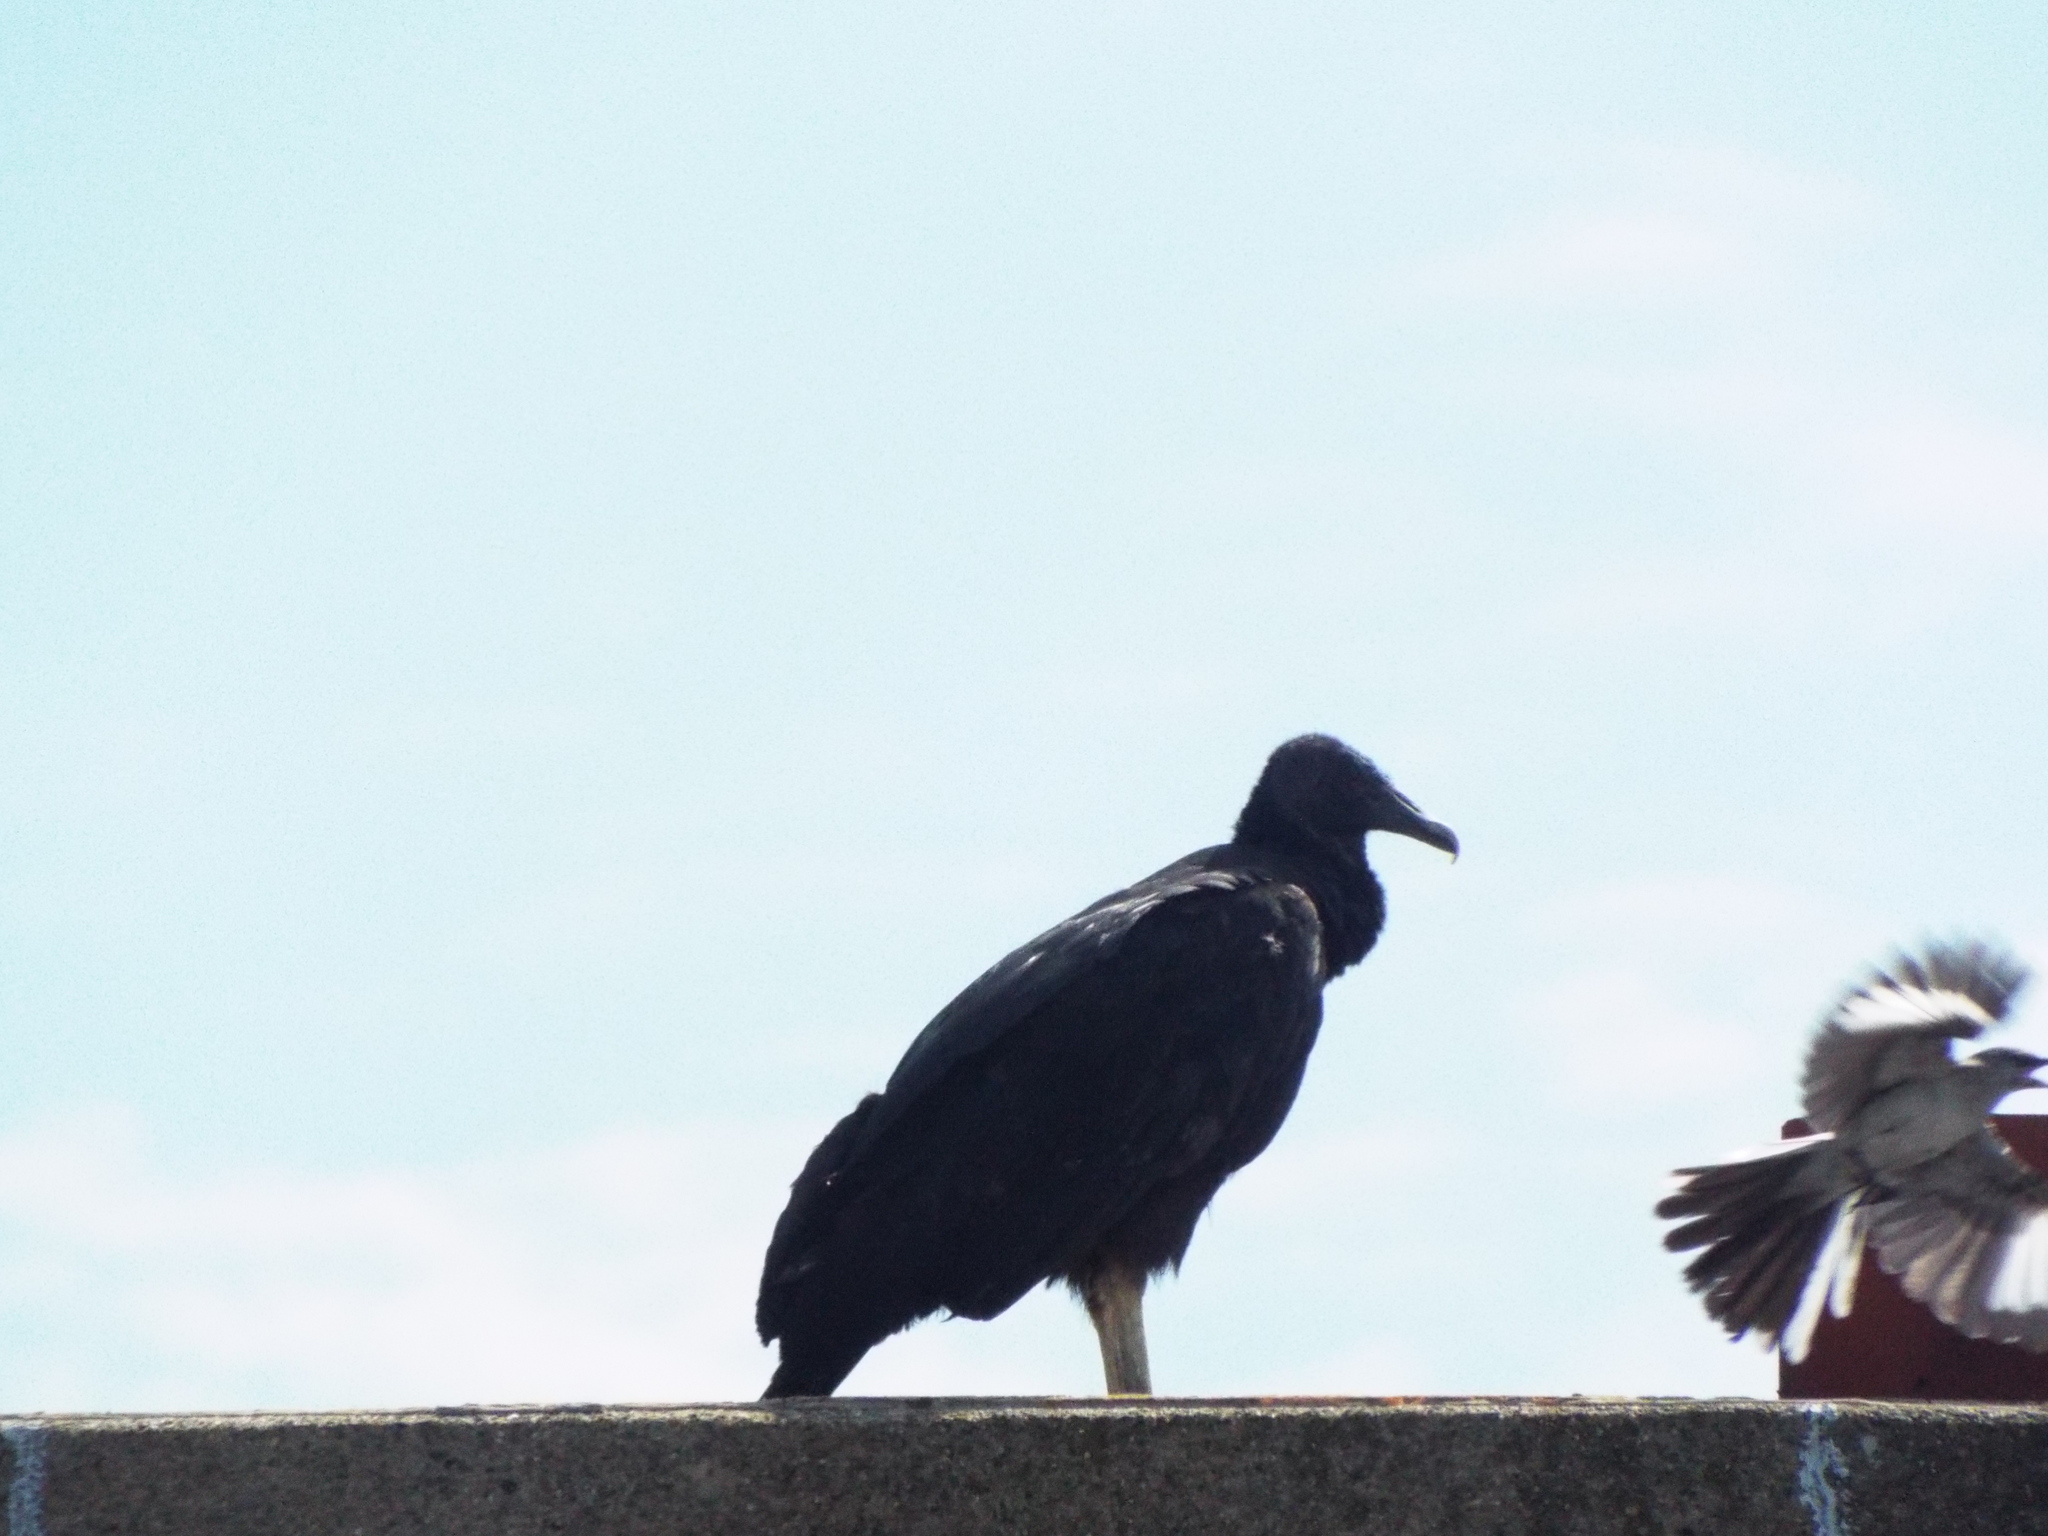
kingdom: Animalia
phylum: Chordata
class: Aves
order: Accipitriformes
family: Cathartidae
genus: Coragyps
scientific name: Coragyps atratus
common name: Black vulture
